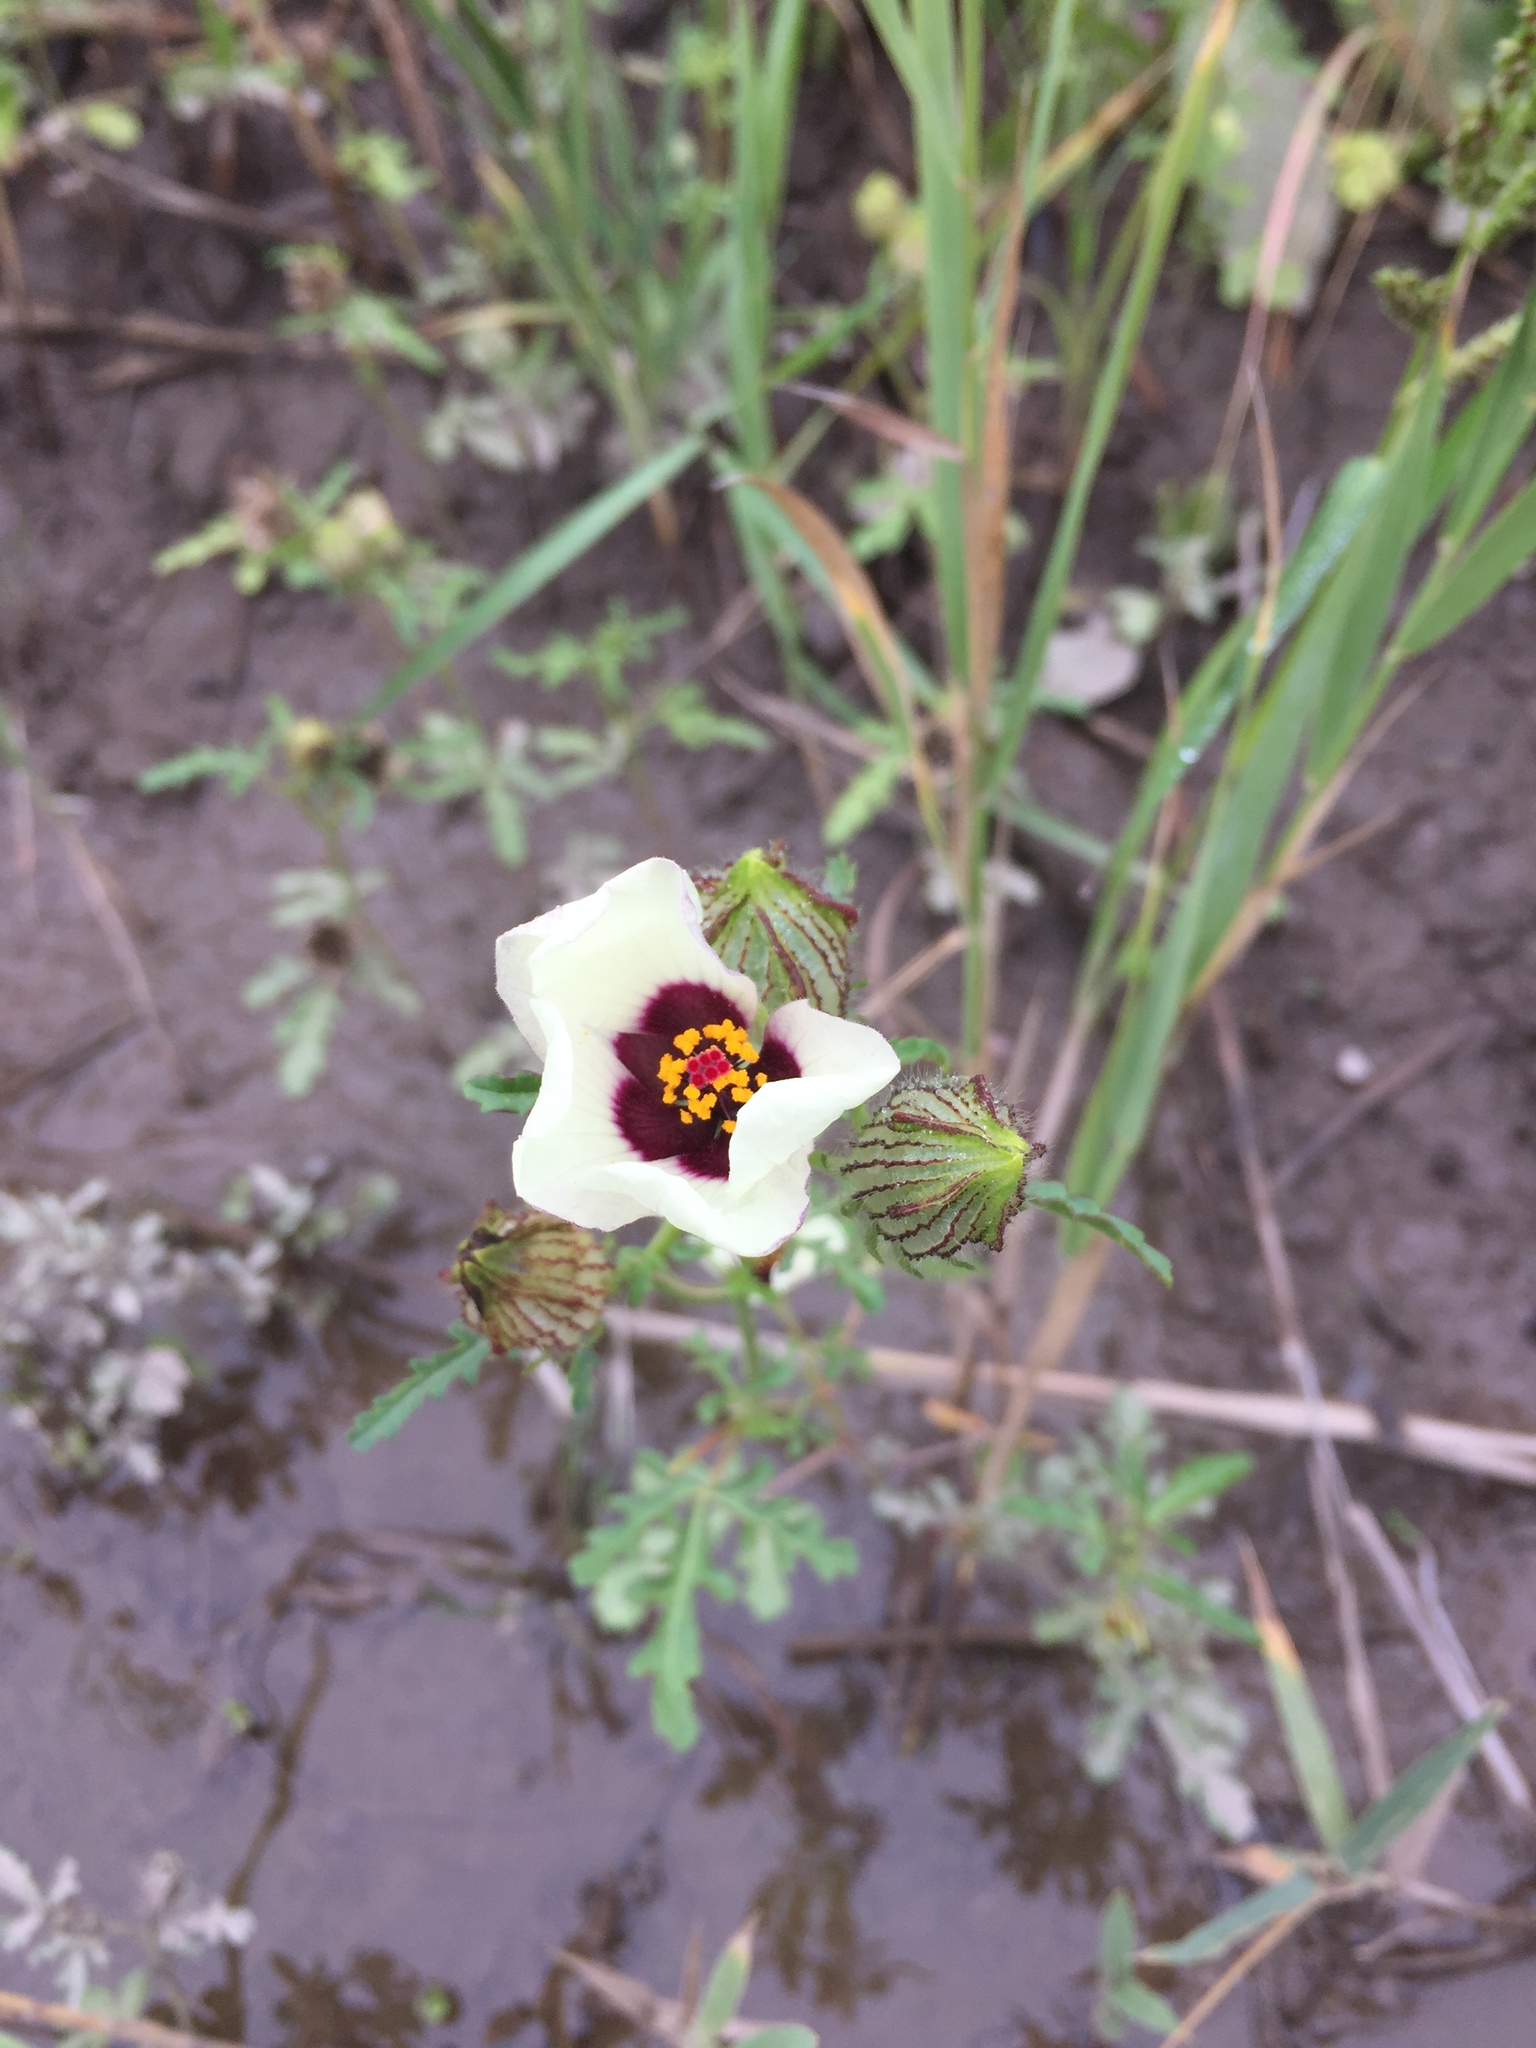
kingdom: Plantae
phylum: Tracheophyta
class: Magnoliopsida
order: Malvales
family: Malvaceae
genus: Hibiscus
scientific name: Hibiscus trionum
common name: Bladder ketmia
